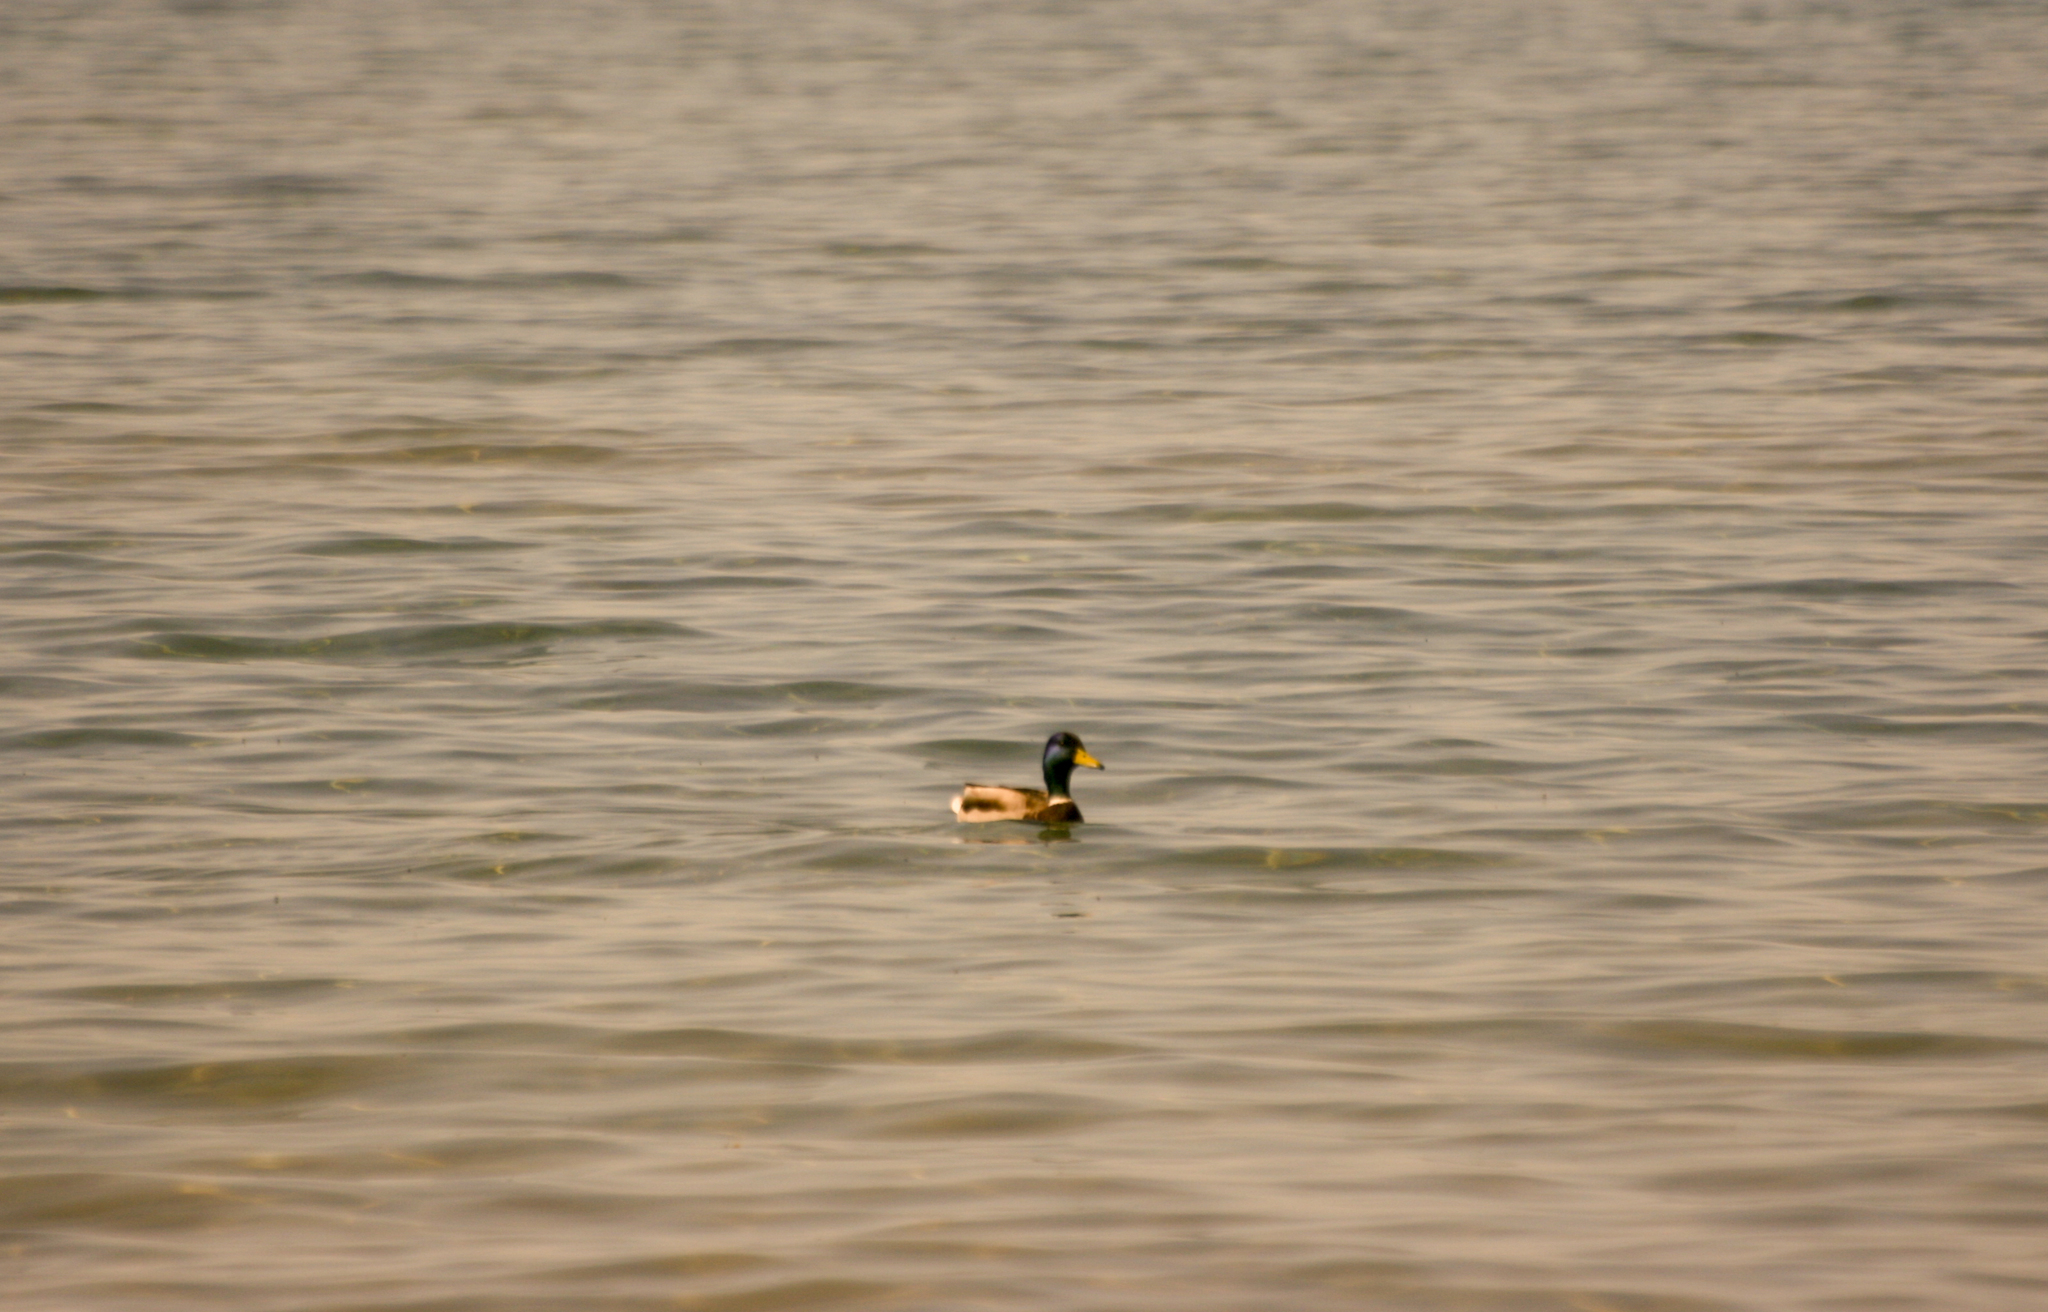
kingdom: Animalia
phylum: Chordata
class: Aves
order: Anseriformes
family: Anatidae
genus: Anas
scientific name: Anas platyrhynchos
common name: Mallard
